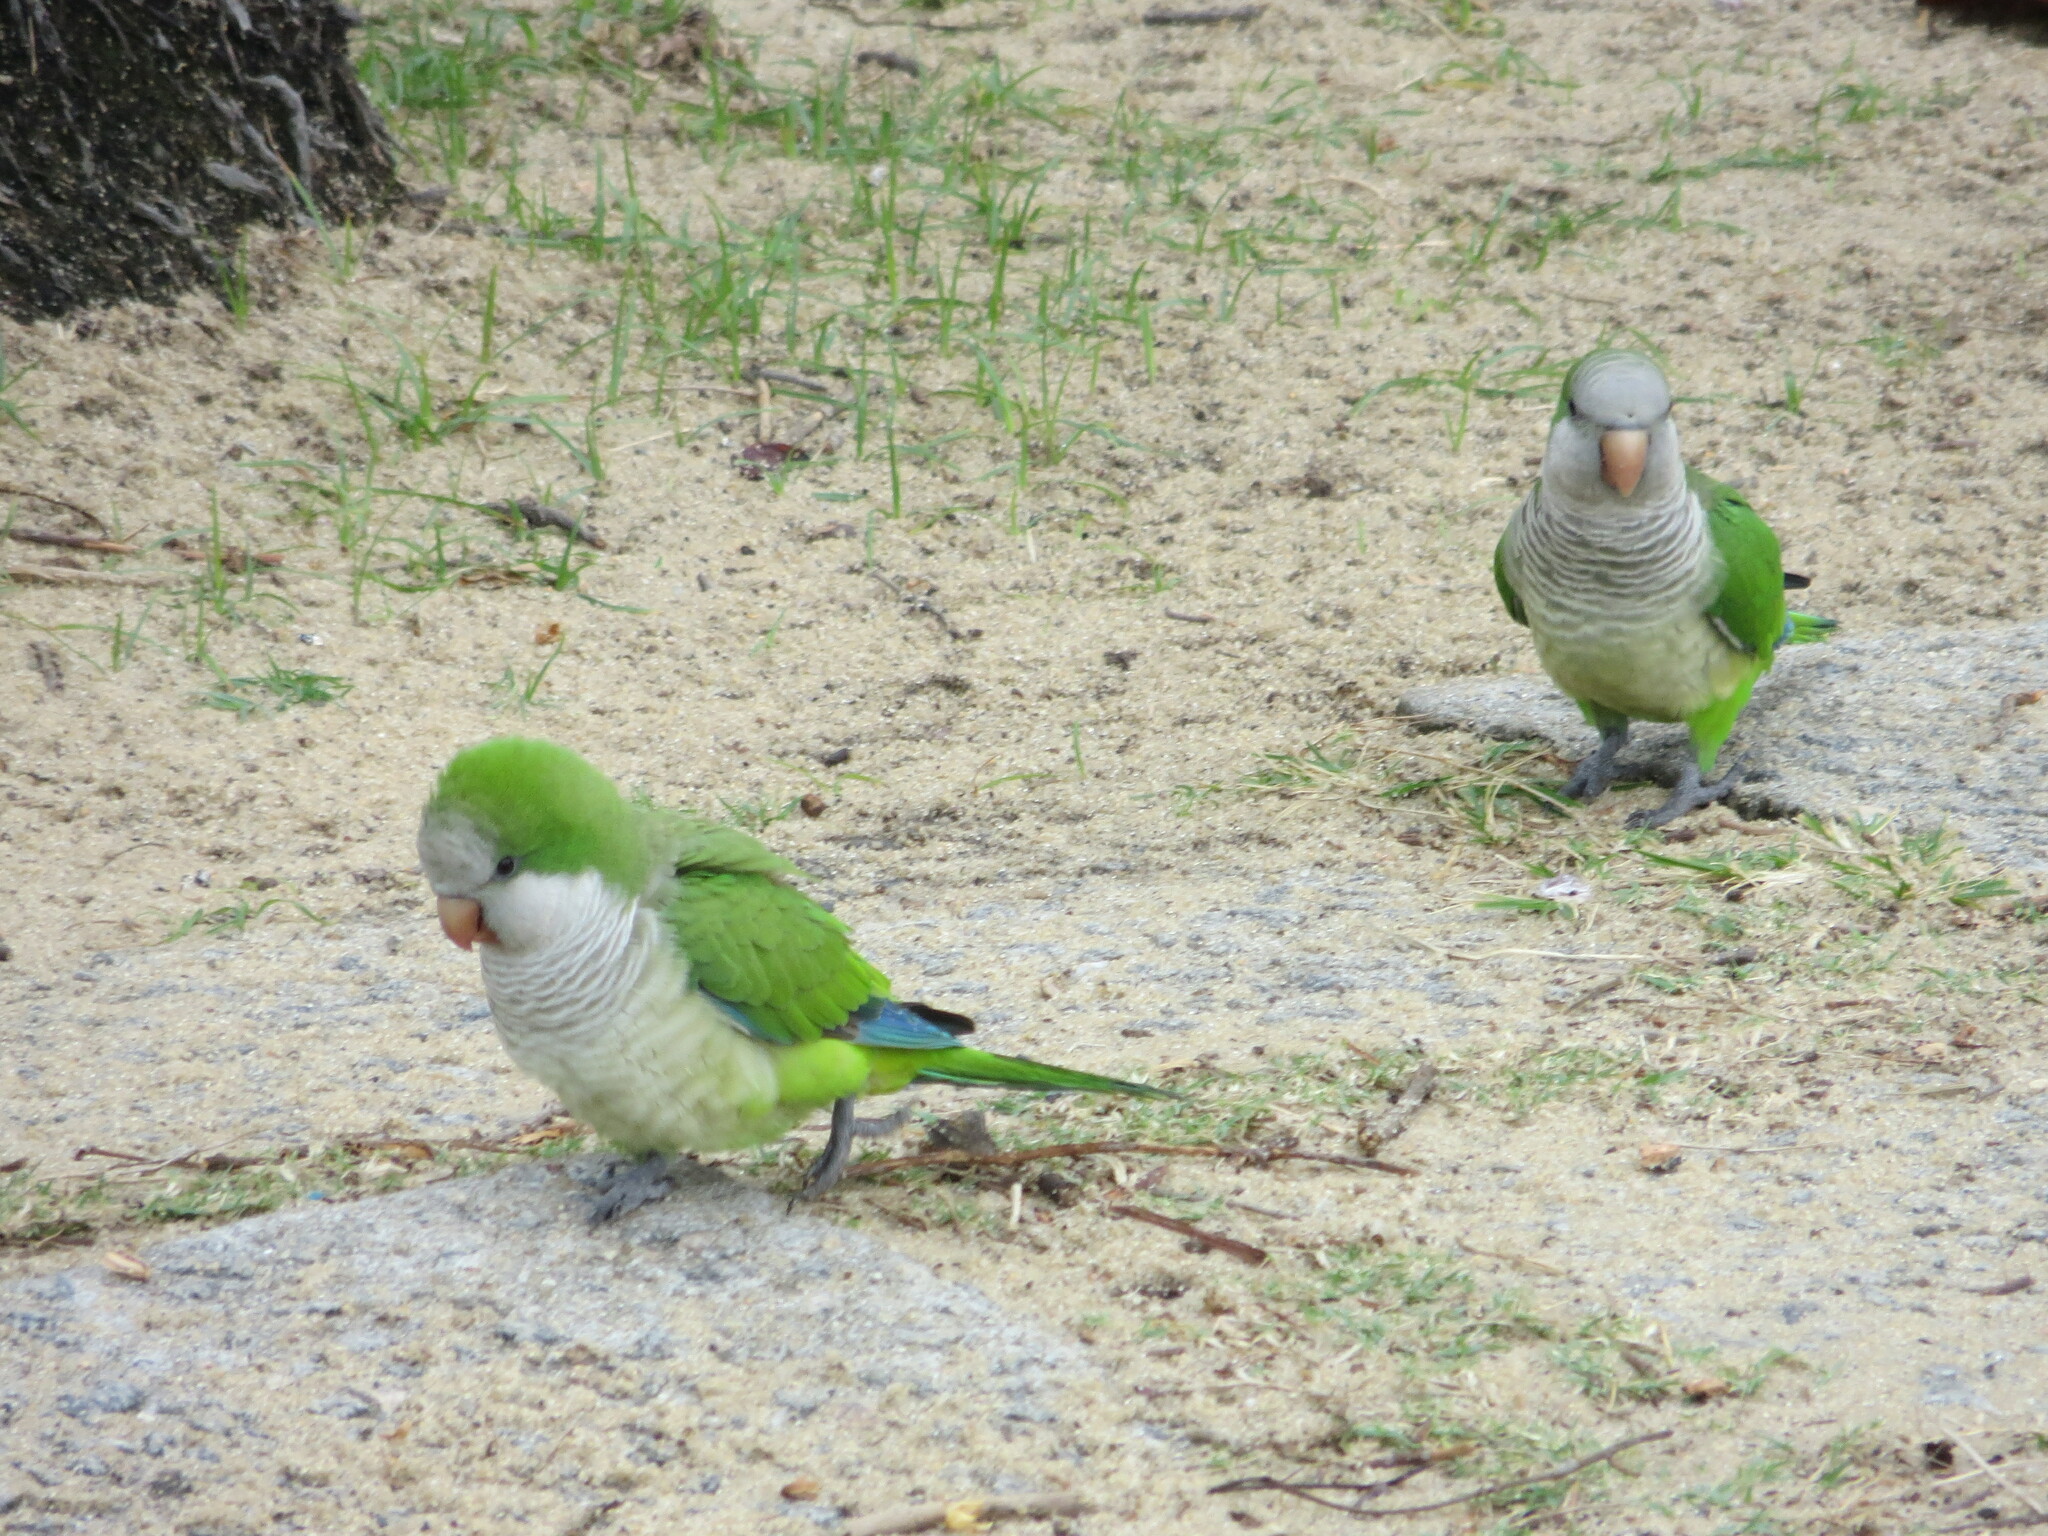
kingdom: Animalia
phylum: Chordata
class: Aves
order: Psittaciformes
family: Psittacidae
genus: Myiopsitta
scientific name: Myiopsitta monachus
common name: Monk parakeet
